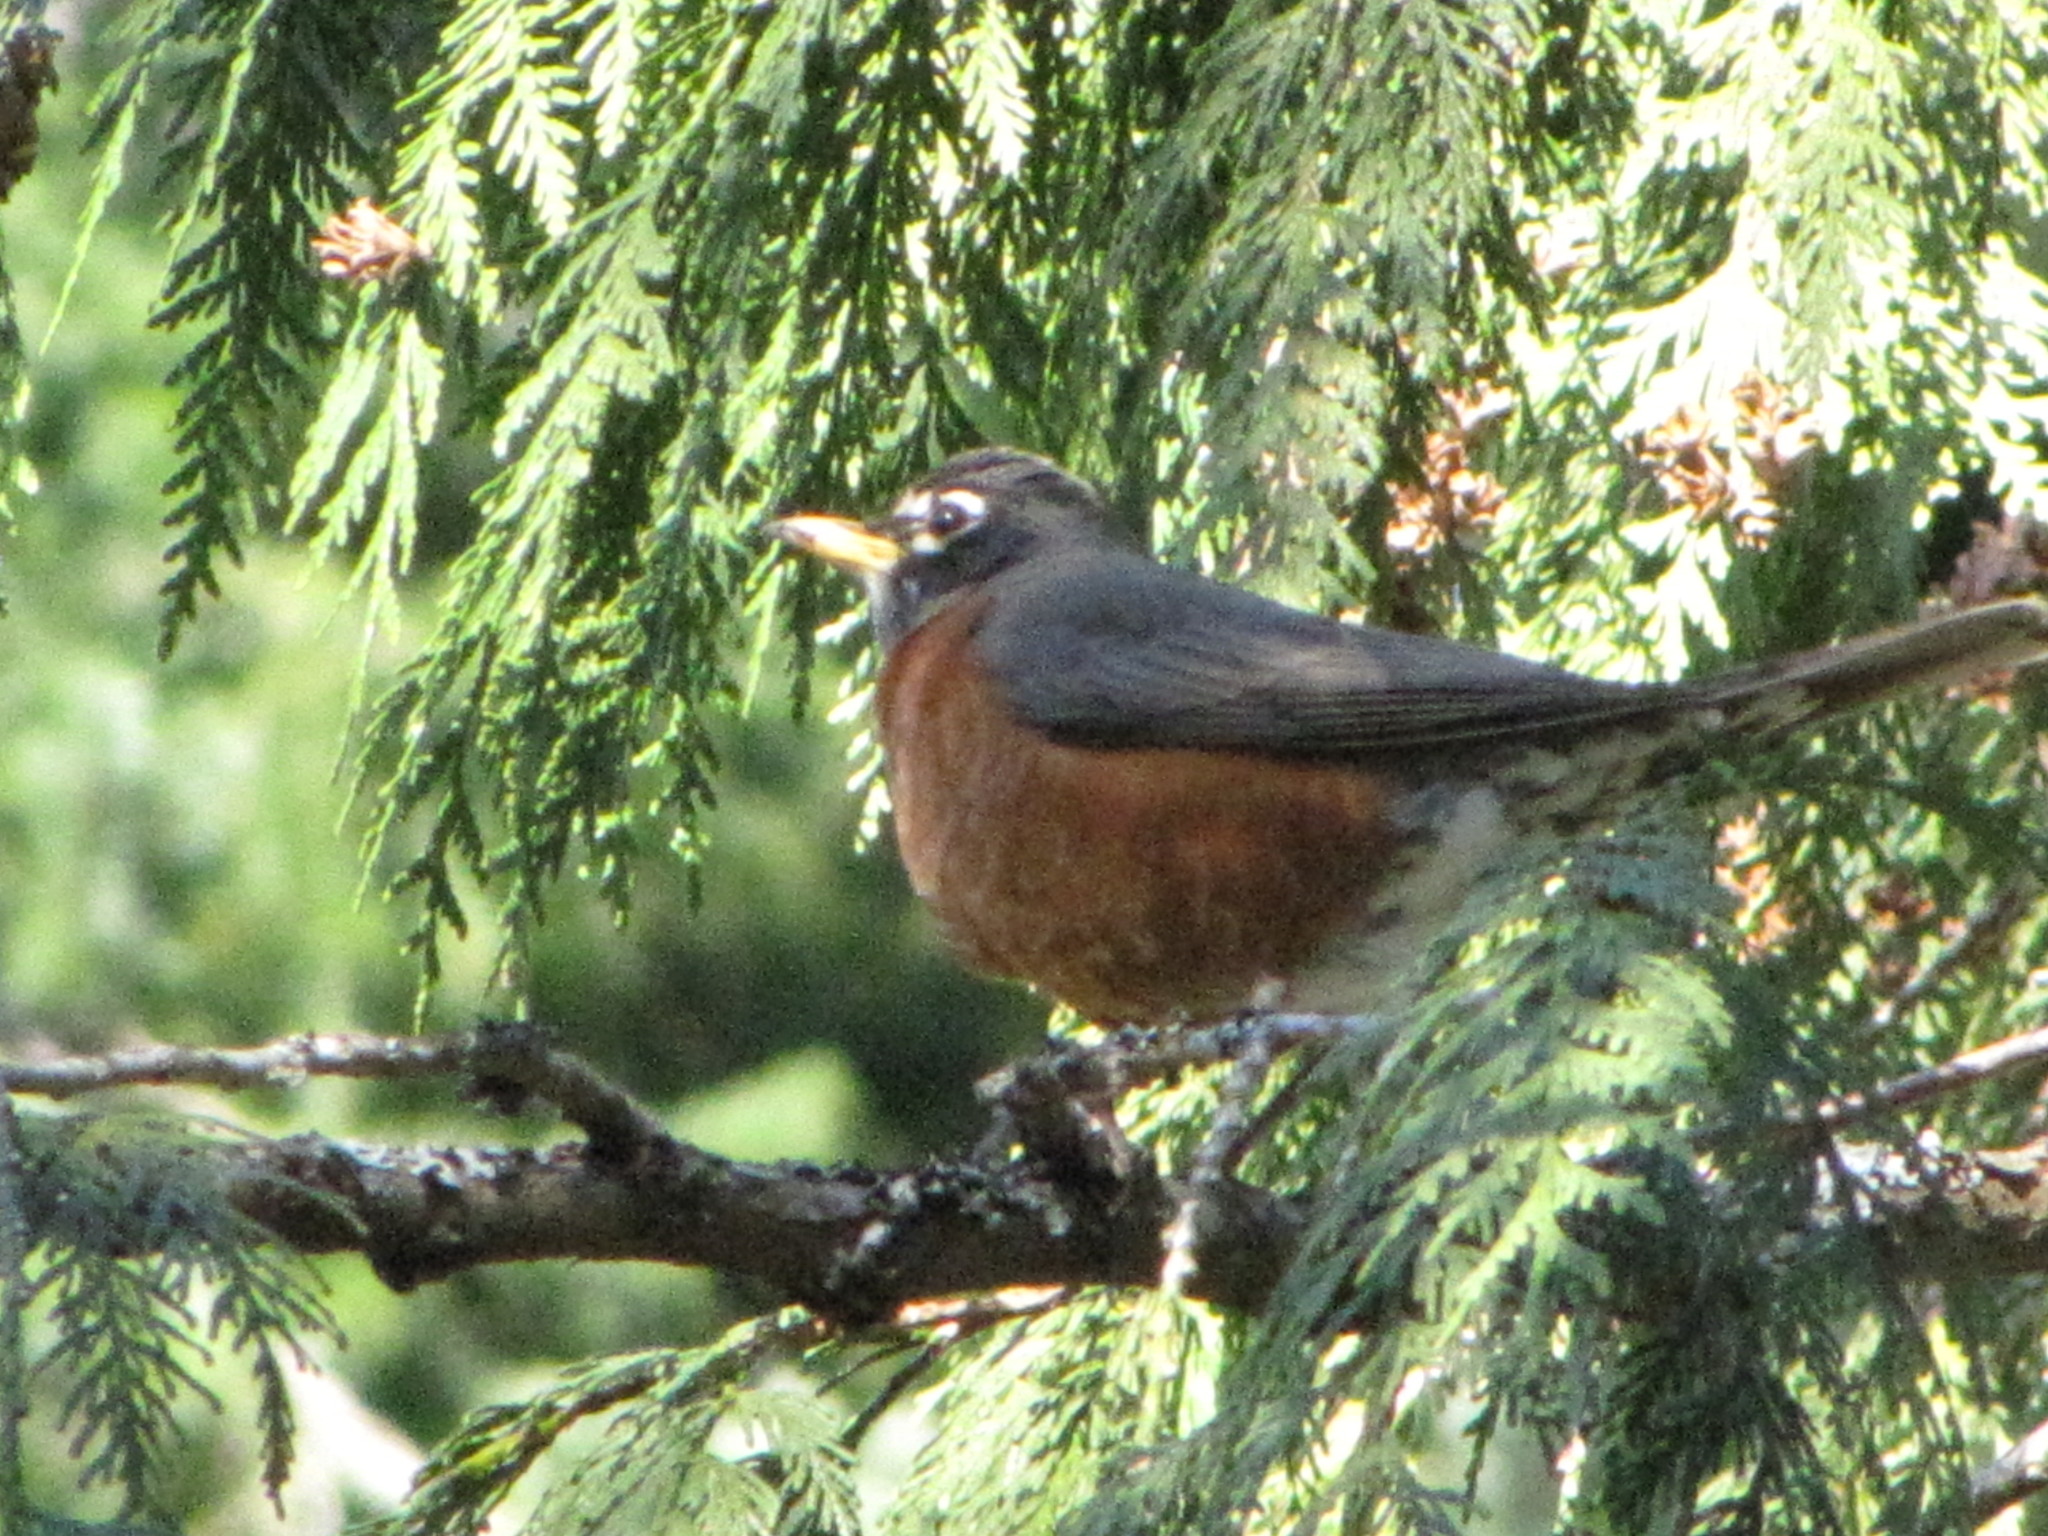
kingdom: Animalia
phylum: Chordata
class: Aves
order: Passeriformes
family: Turdidae
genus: Turdus
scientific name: Turdus migratorius
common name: American robin
